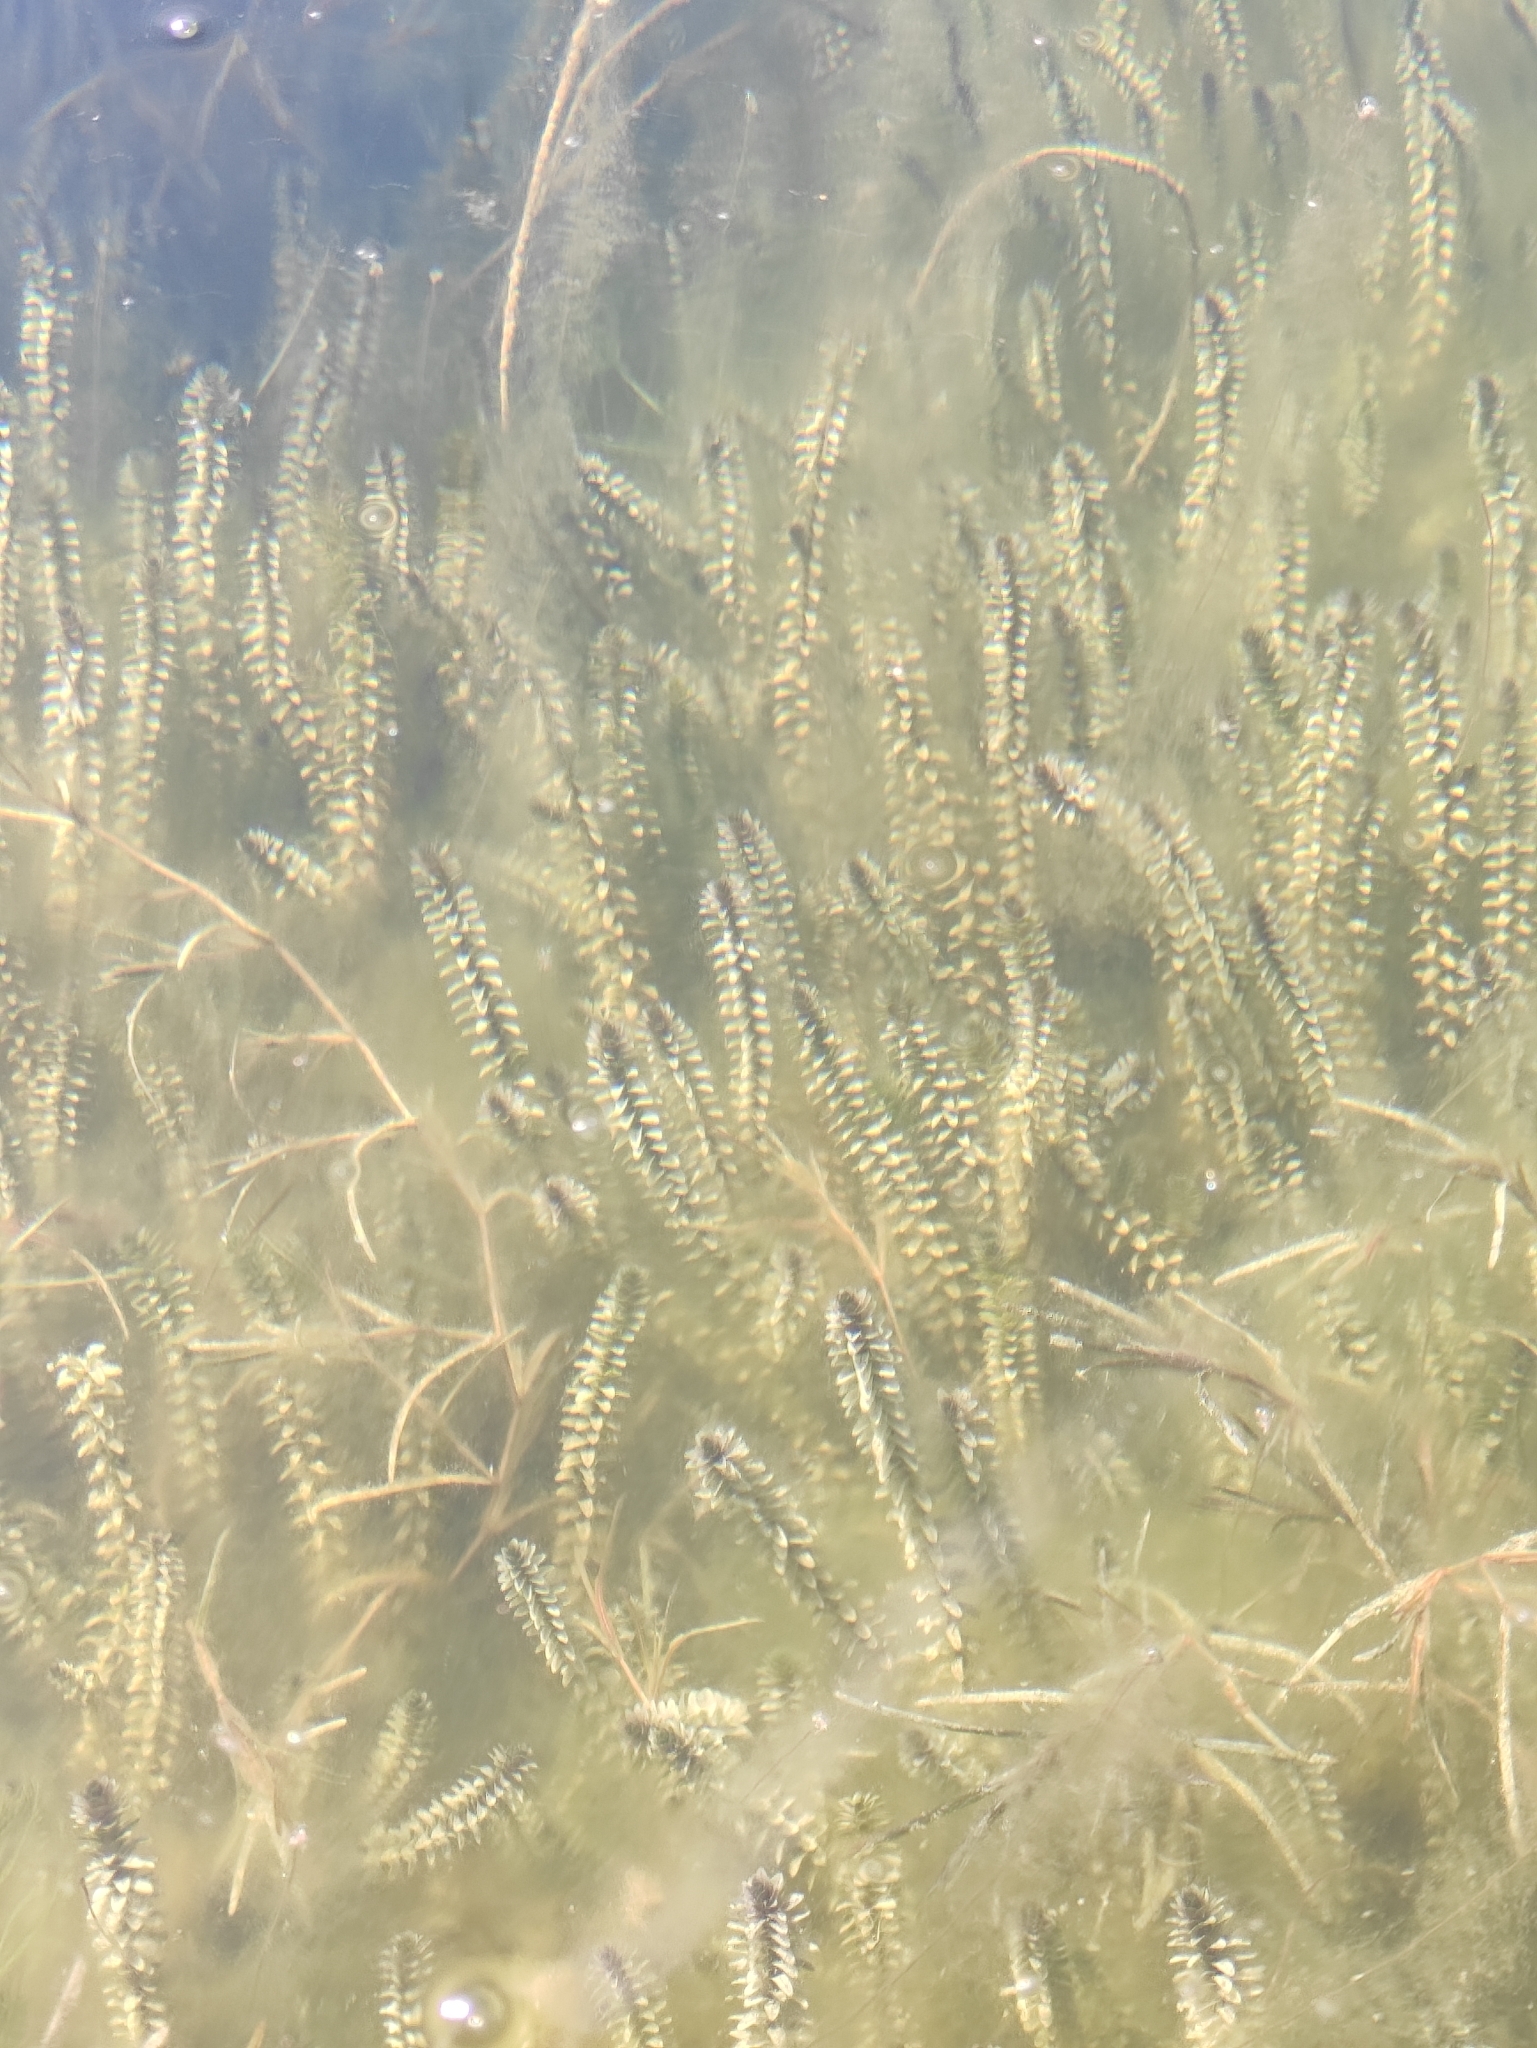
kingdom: Plantae
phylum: Tracheophyta
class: Liliopsida
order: Alismatales
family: Hydrocharitaceae
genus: Elodea
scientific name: Elodea canadensis
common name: Canadian waterweed
